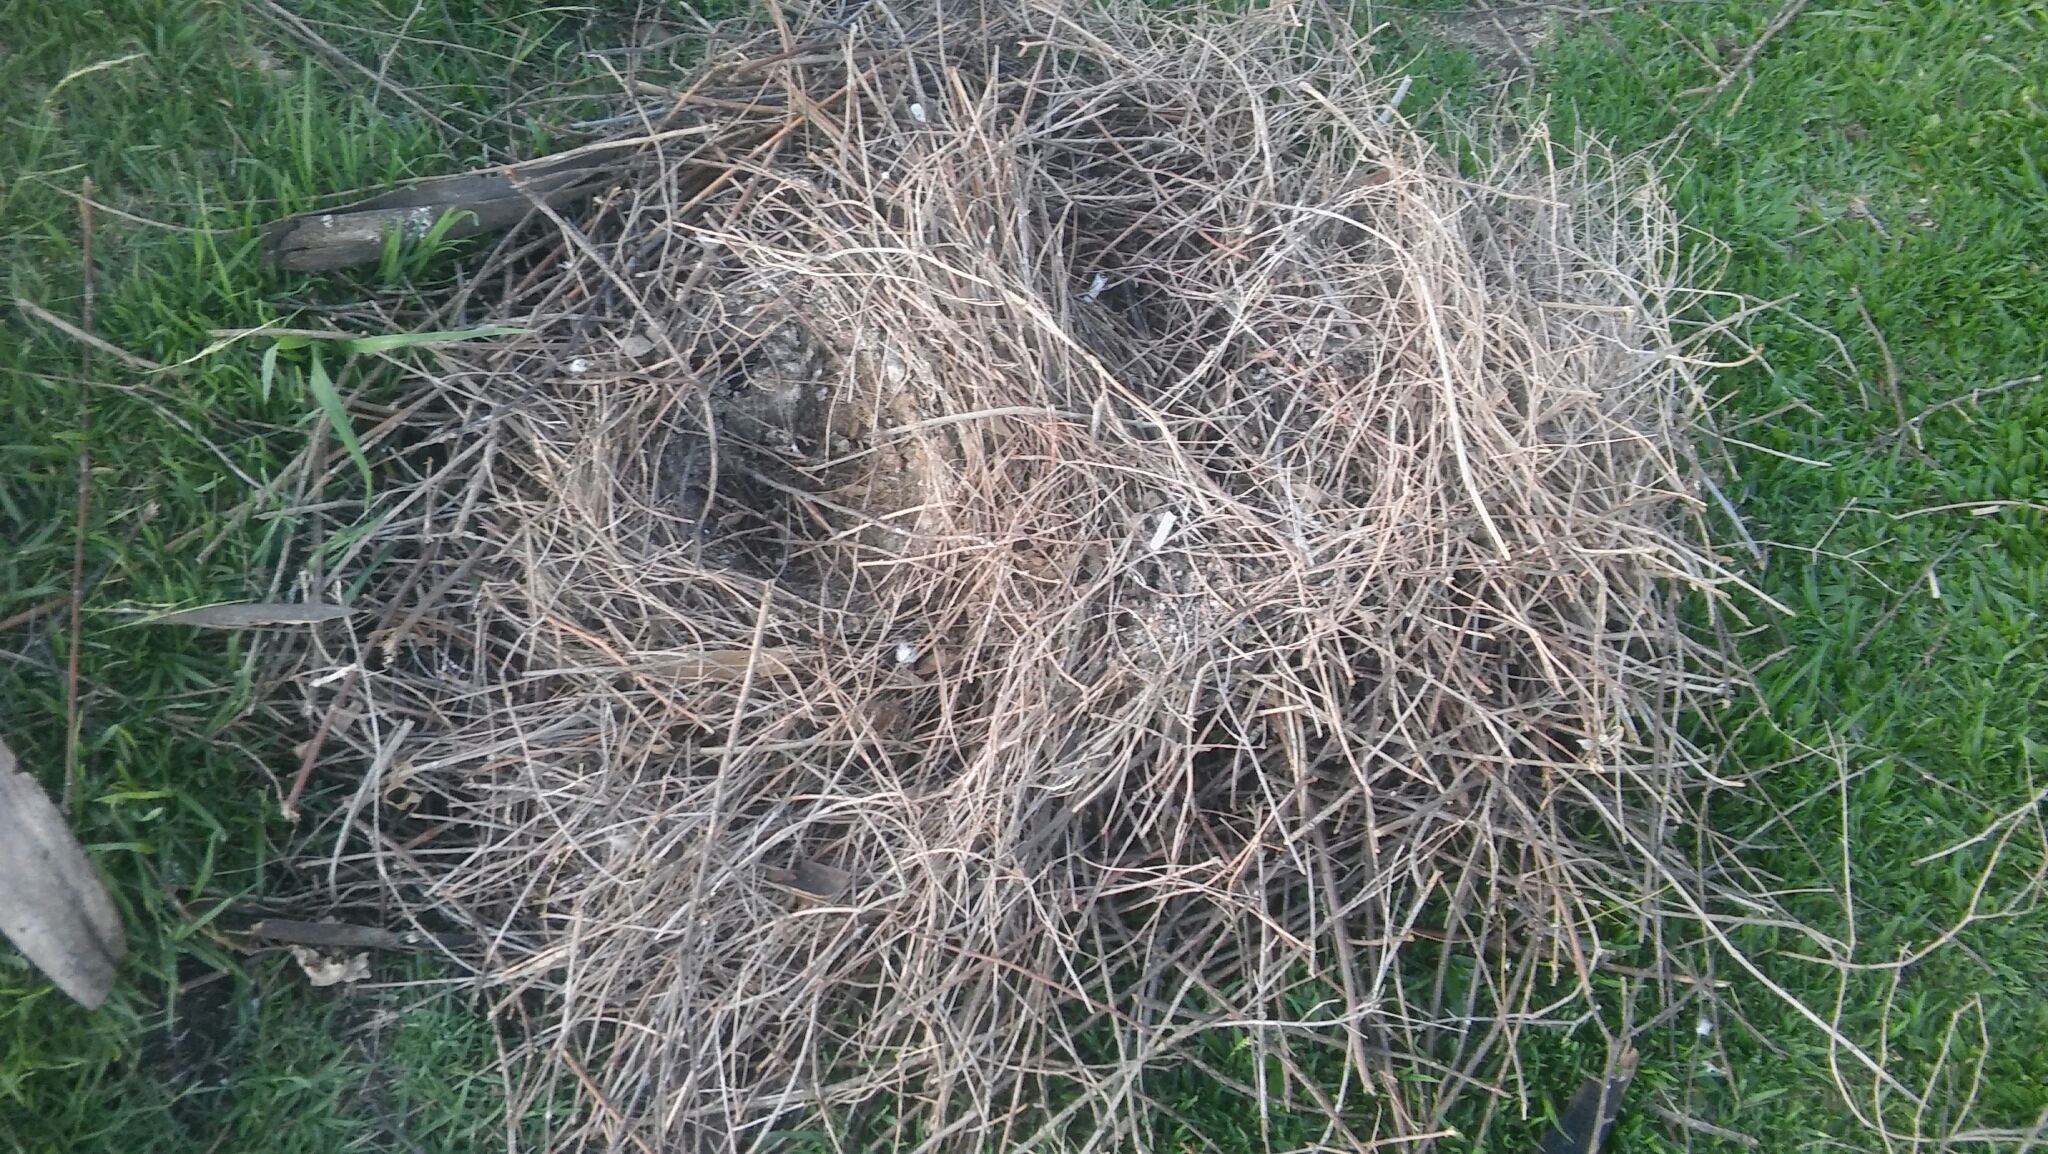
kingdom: Animalia
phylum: Chordata
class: Aves
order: Psittaciformes
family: Psittacidae
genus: Myiopsitta
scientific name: Myiopsitta monachus
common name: Monk parakeet
